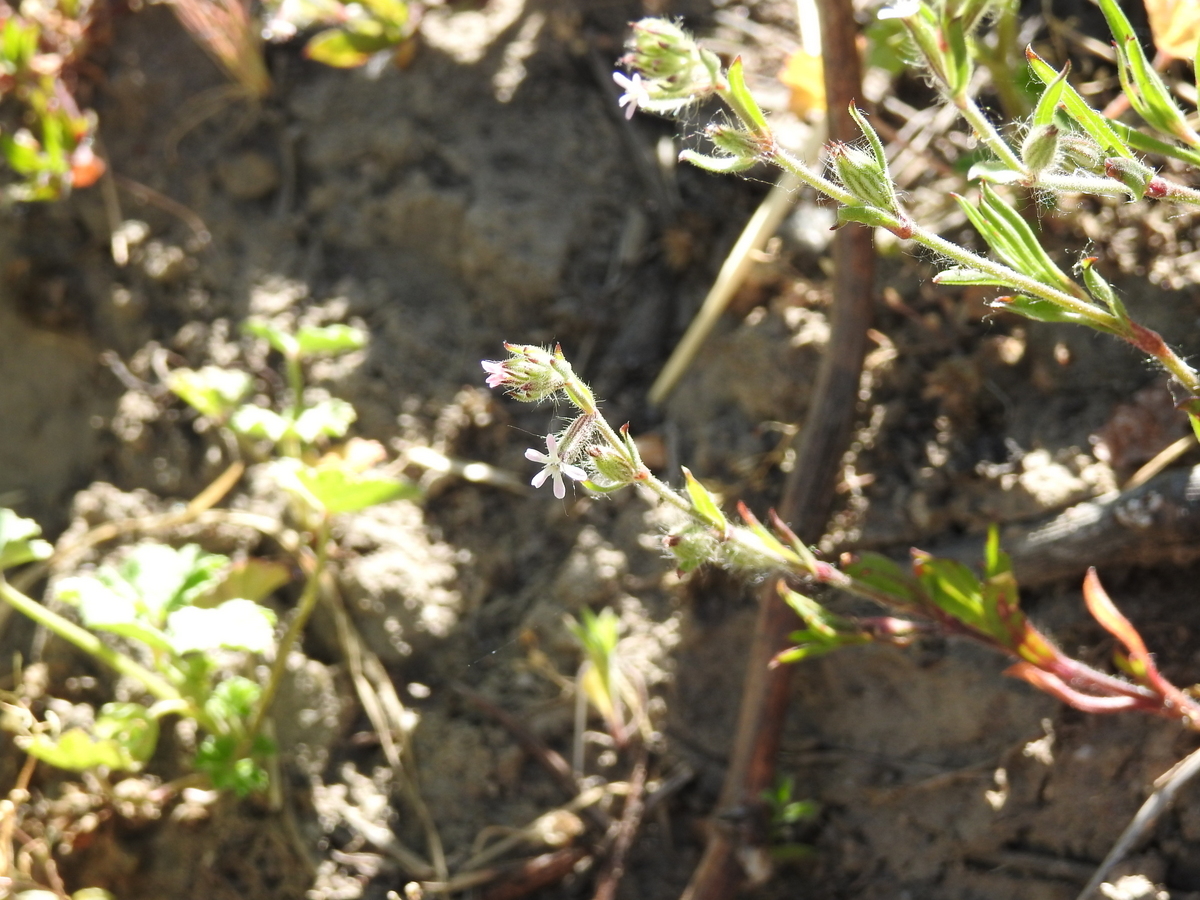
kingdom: Plantae
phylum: Tracheophyta
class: Magnoliopsida
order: Caryophyllales
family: Caryophyllaceae
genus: Silene
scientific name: Silene gallica
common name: Small-flowered catchfly
